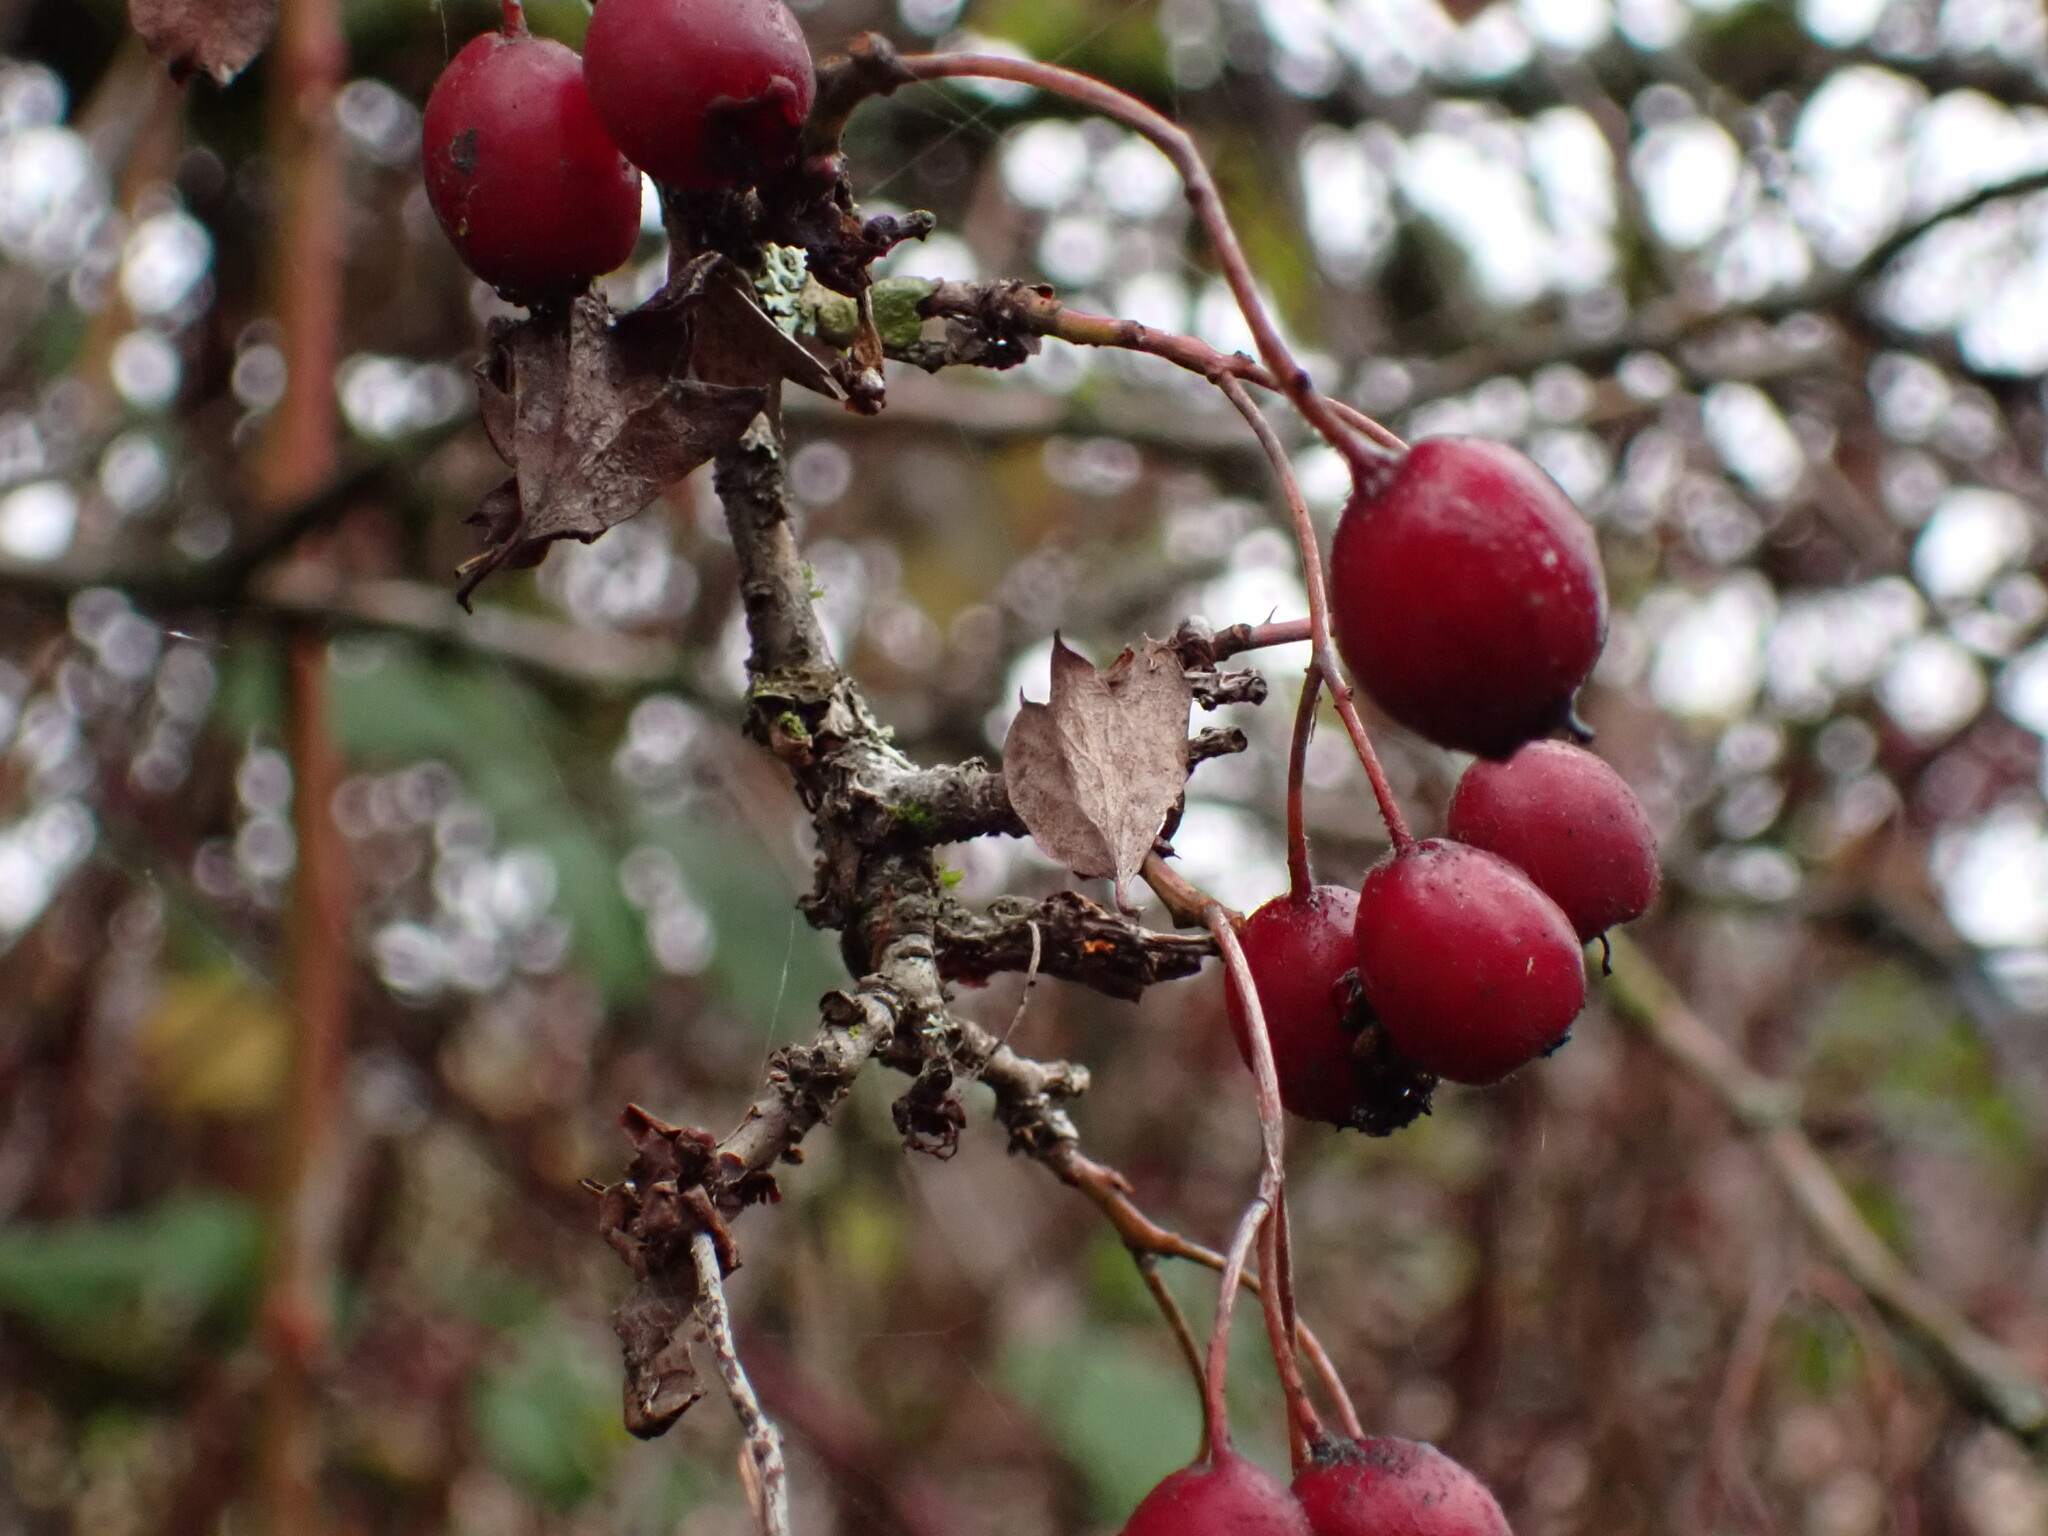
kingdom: Plantae
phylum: Tracheophyta
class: Magnoliopsida
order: Rosales
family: Rosaceae
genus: Crataegus
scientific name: Crataegus monogyna
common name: Hawthorn
